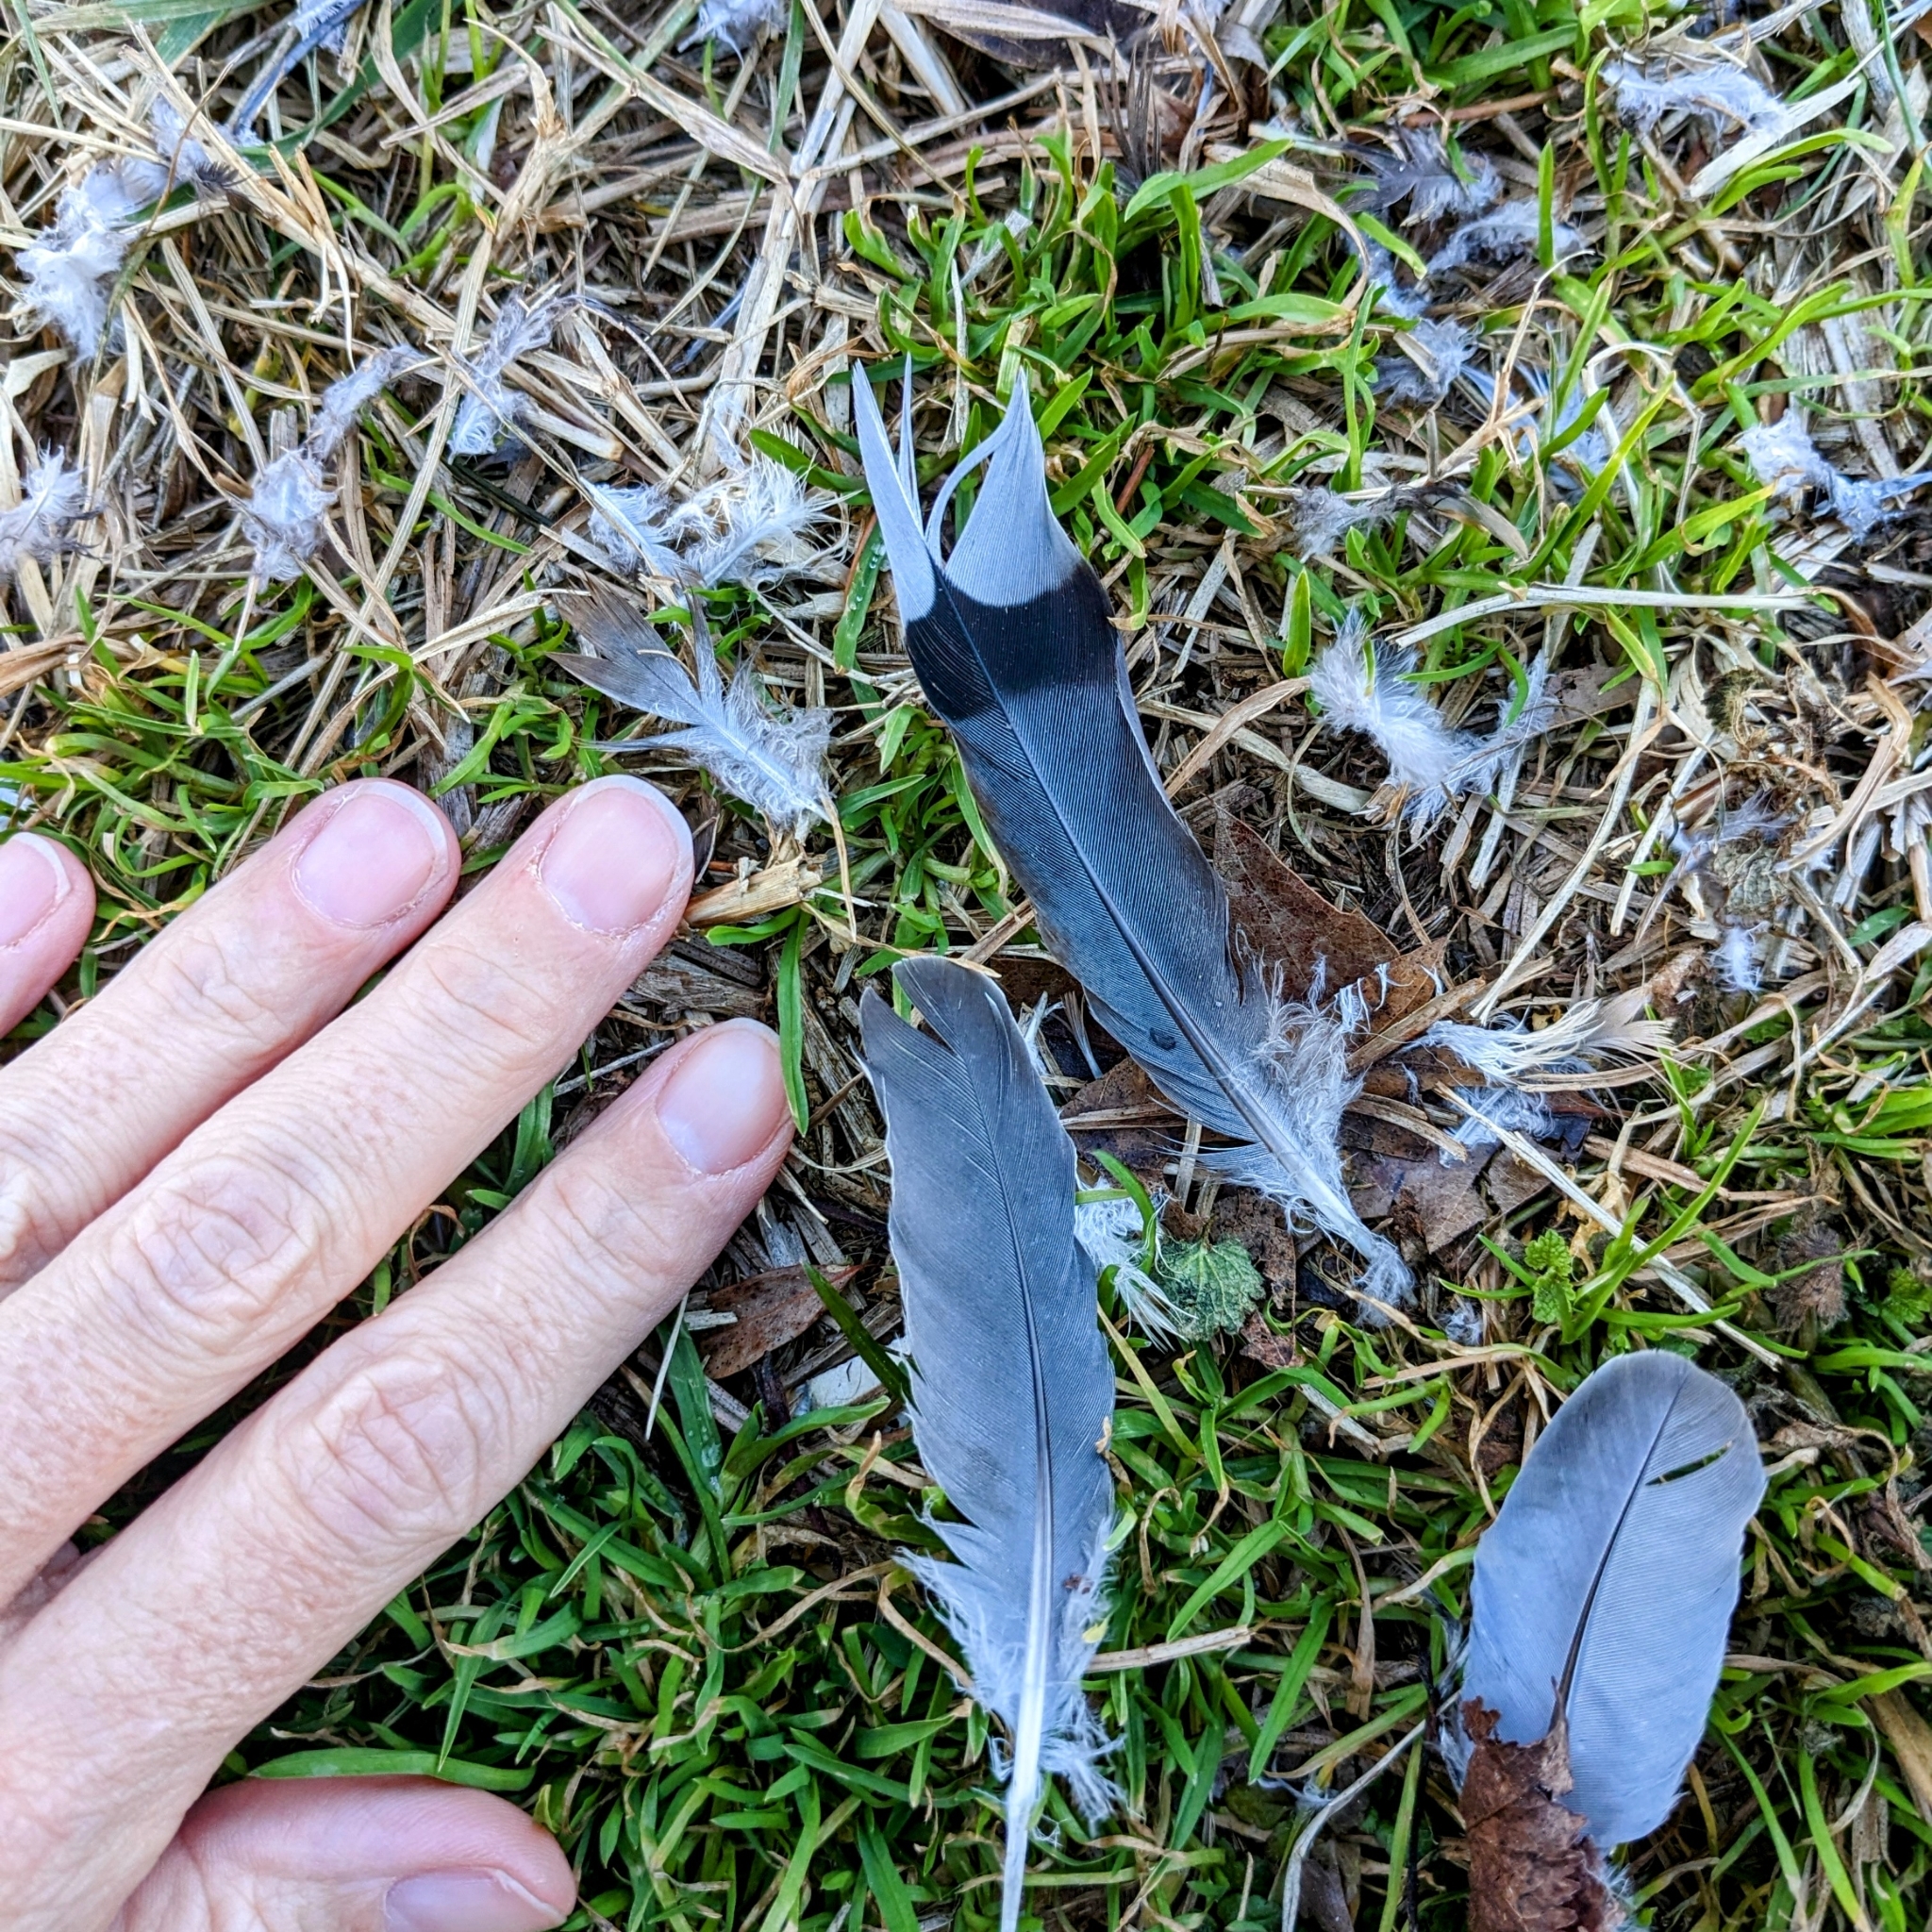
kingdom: Animalia
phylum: Chordata
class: Aves
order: Columbiformes
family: Columbidae
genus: Zenaida
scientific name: Zenaida macroura
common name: Mourning dove
